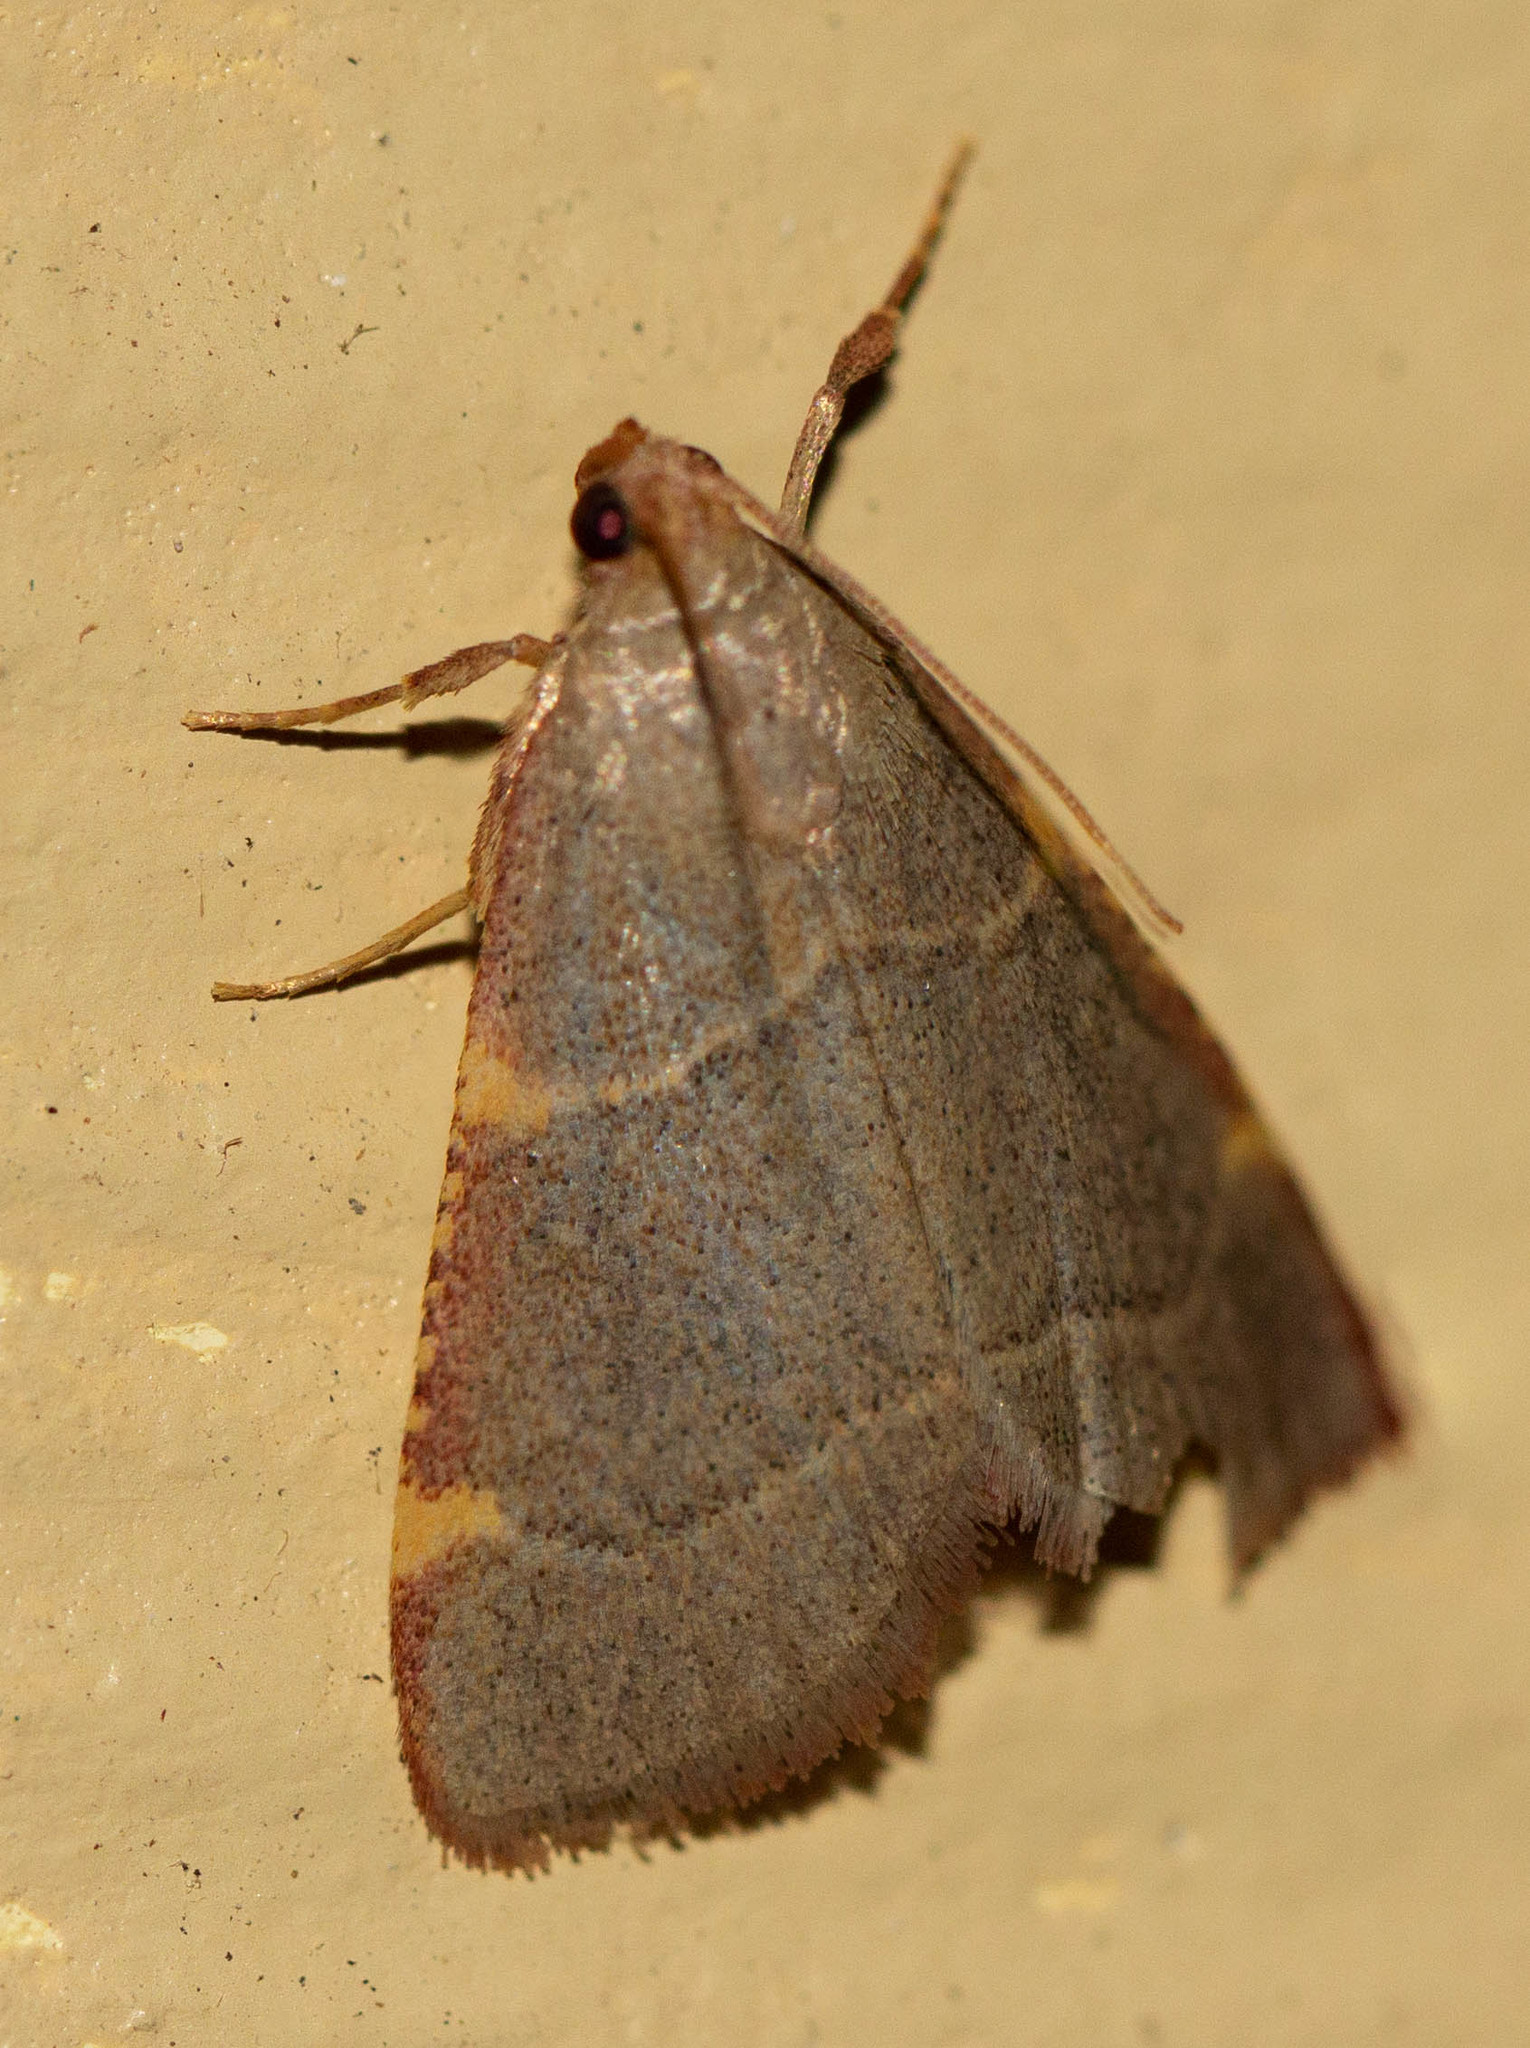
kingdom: Animalia
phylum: Arthropoda
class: Insecta
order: Lepidoptera
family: Pyralidae
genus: Hypsopygia
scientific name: Hypsopygia binodulalis
